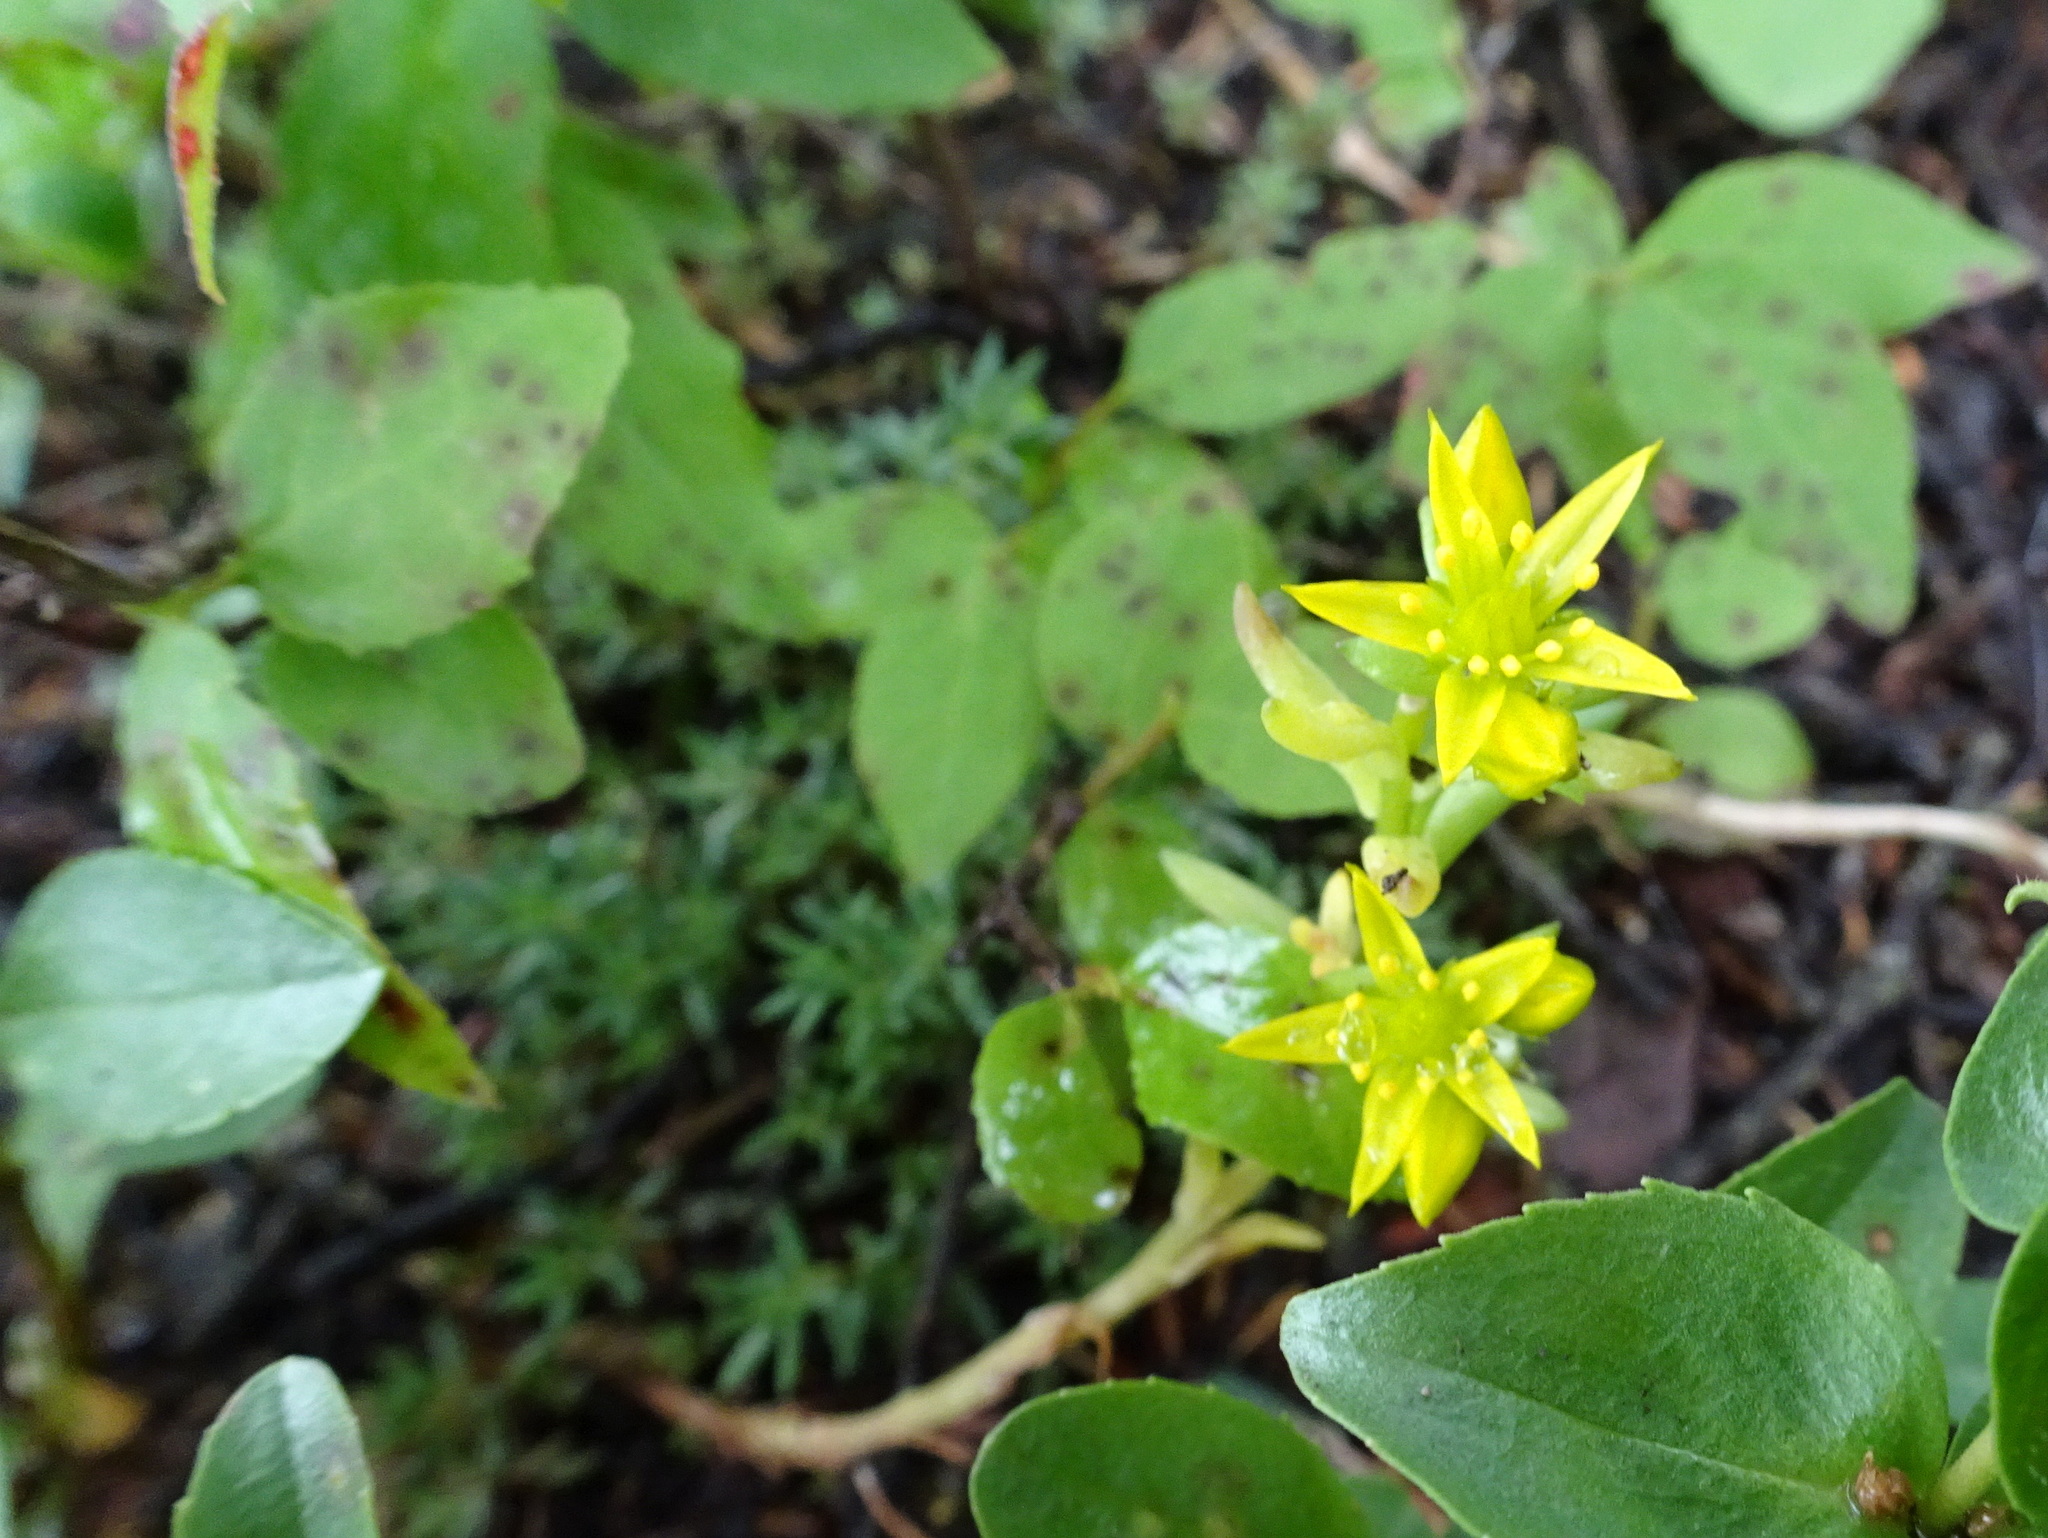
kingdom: Plantae
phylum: Tracheophyta
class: Magnoliopsida
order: Saxifragales
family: Crassulaceae
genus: Sedum
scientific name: Sedum lanceolatum
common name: Common stonecrop
